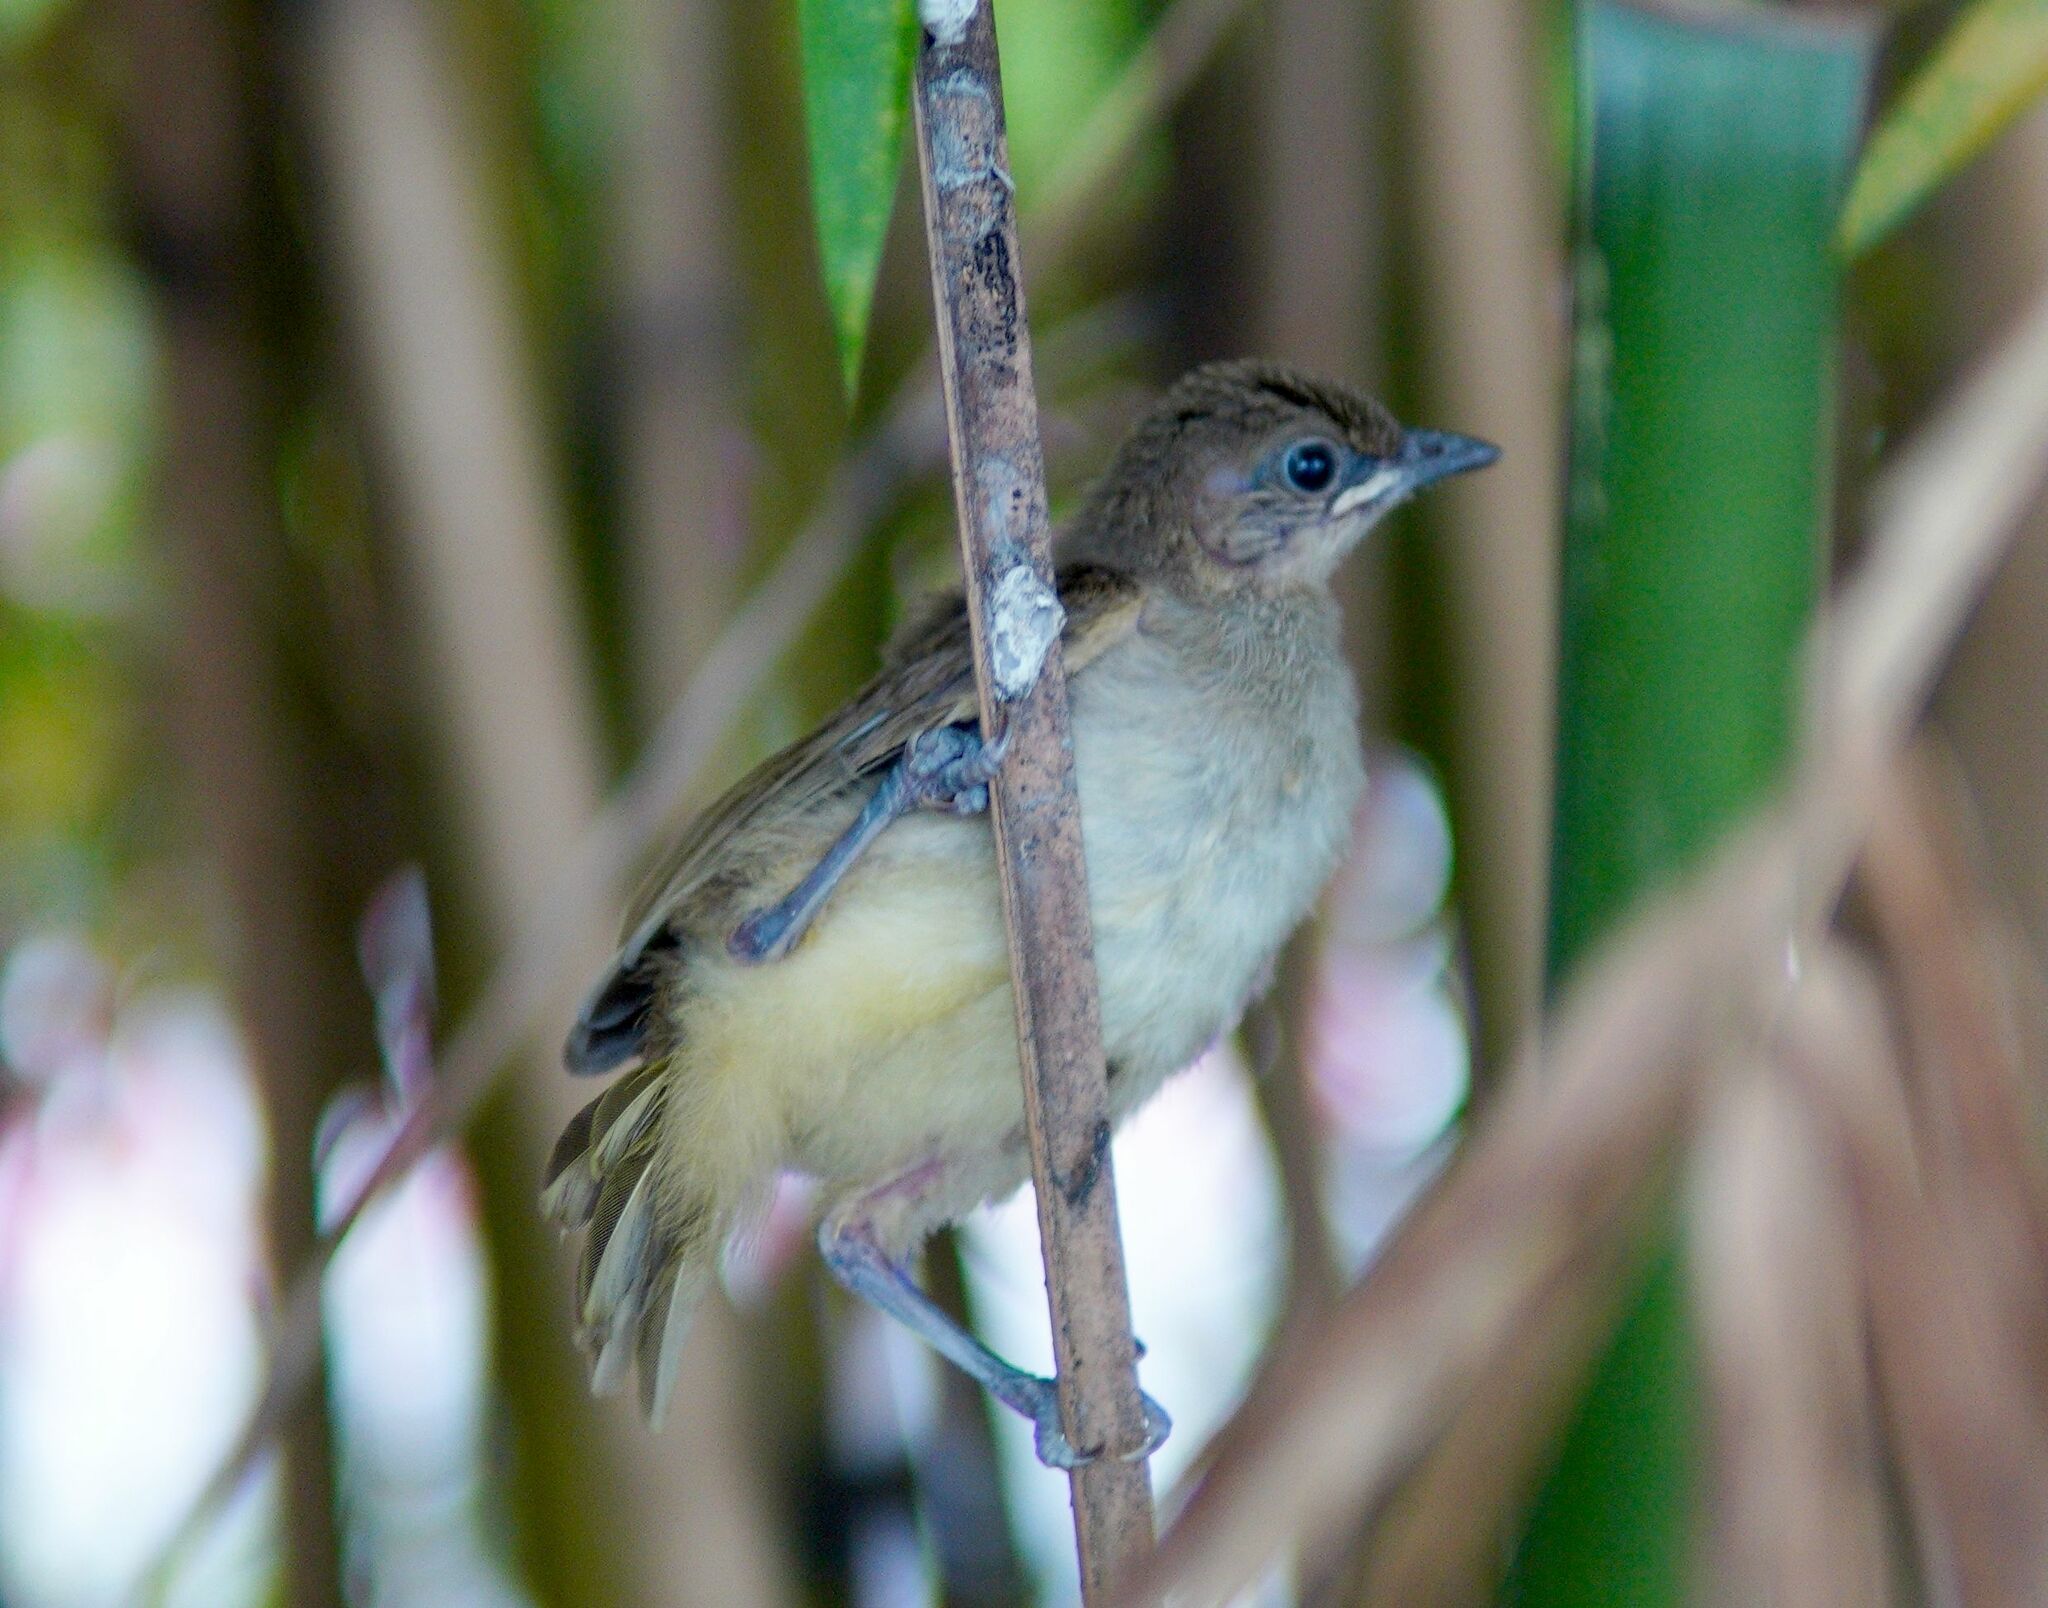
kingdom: Animalia
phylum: Chordata
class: Aves
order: Passeriformes
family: Pycnonotidae
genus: Pycnonotus
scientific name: Pycnonotus blanfordi
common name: Streak-eared bulbul
